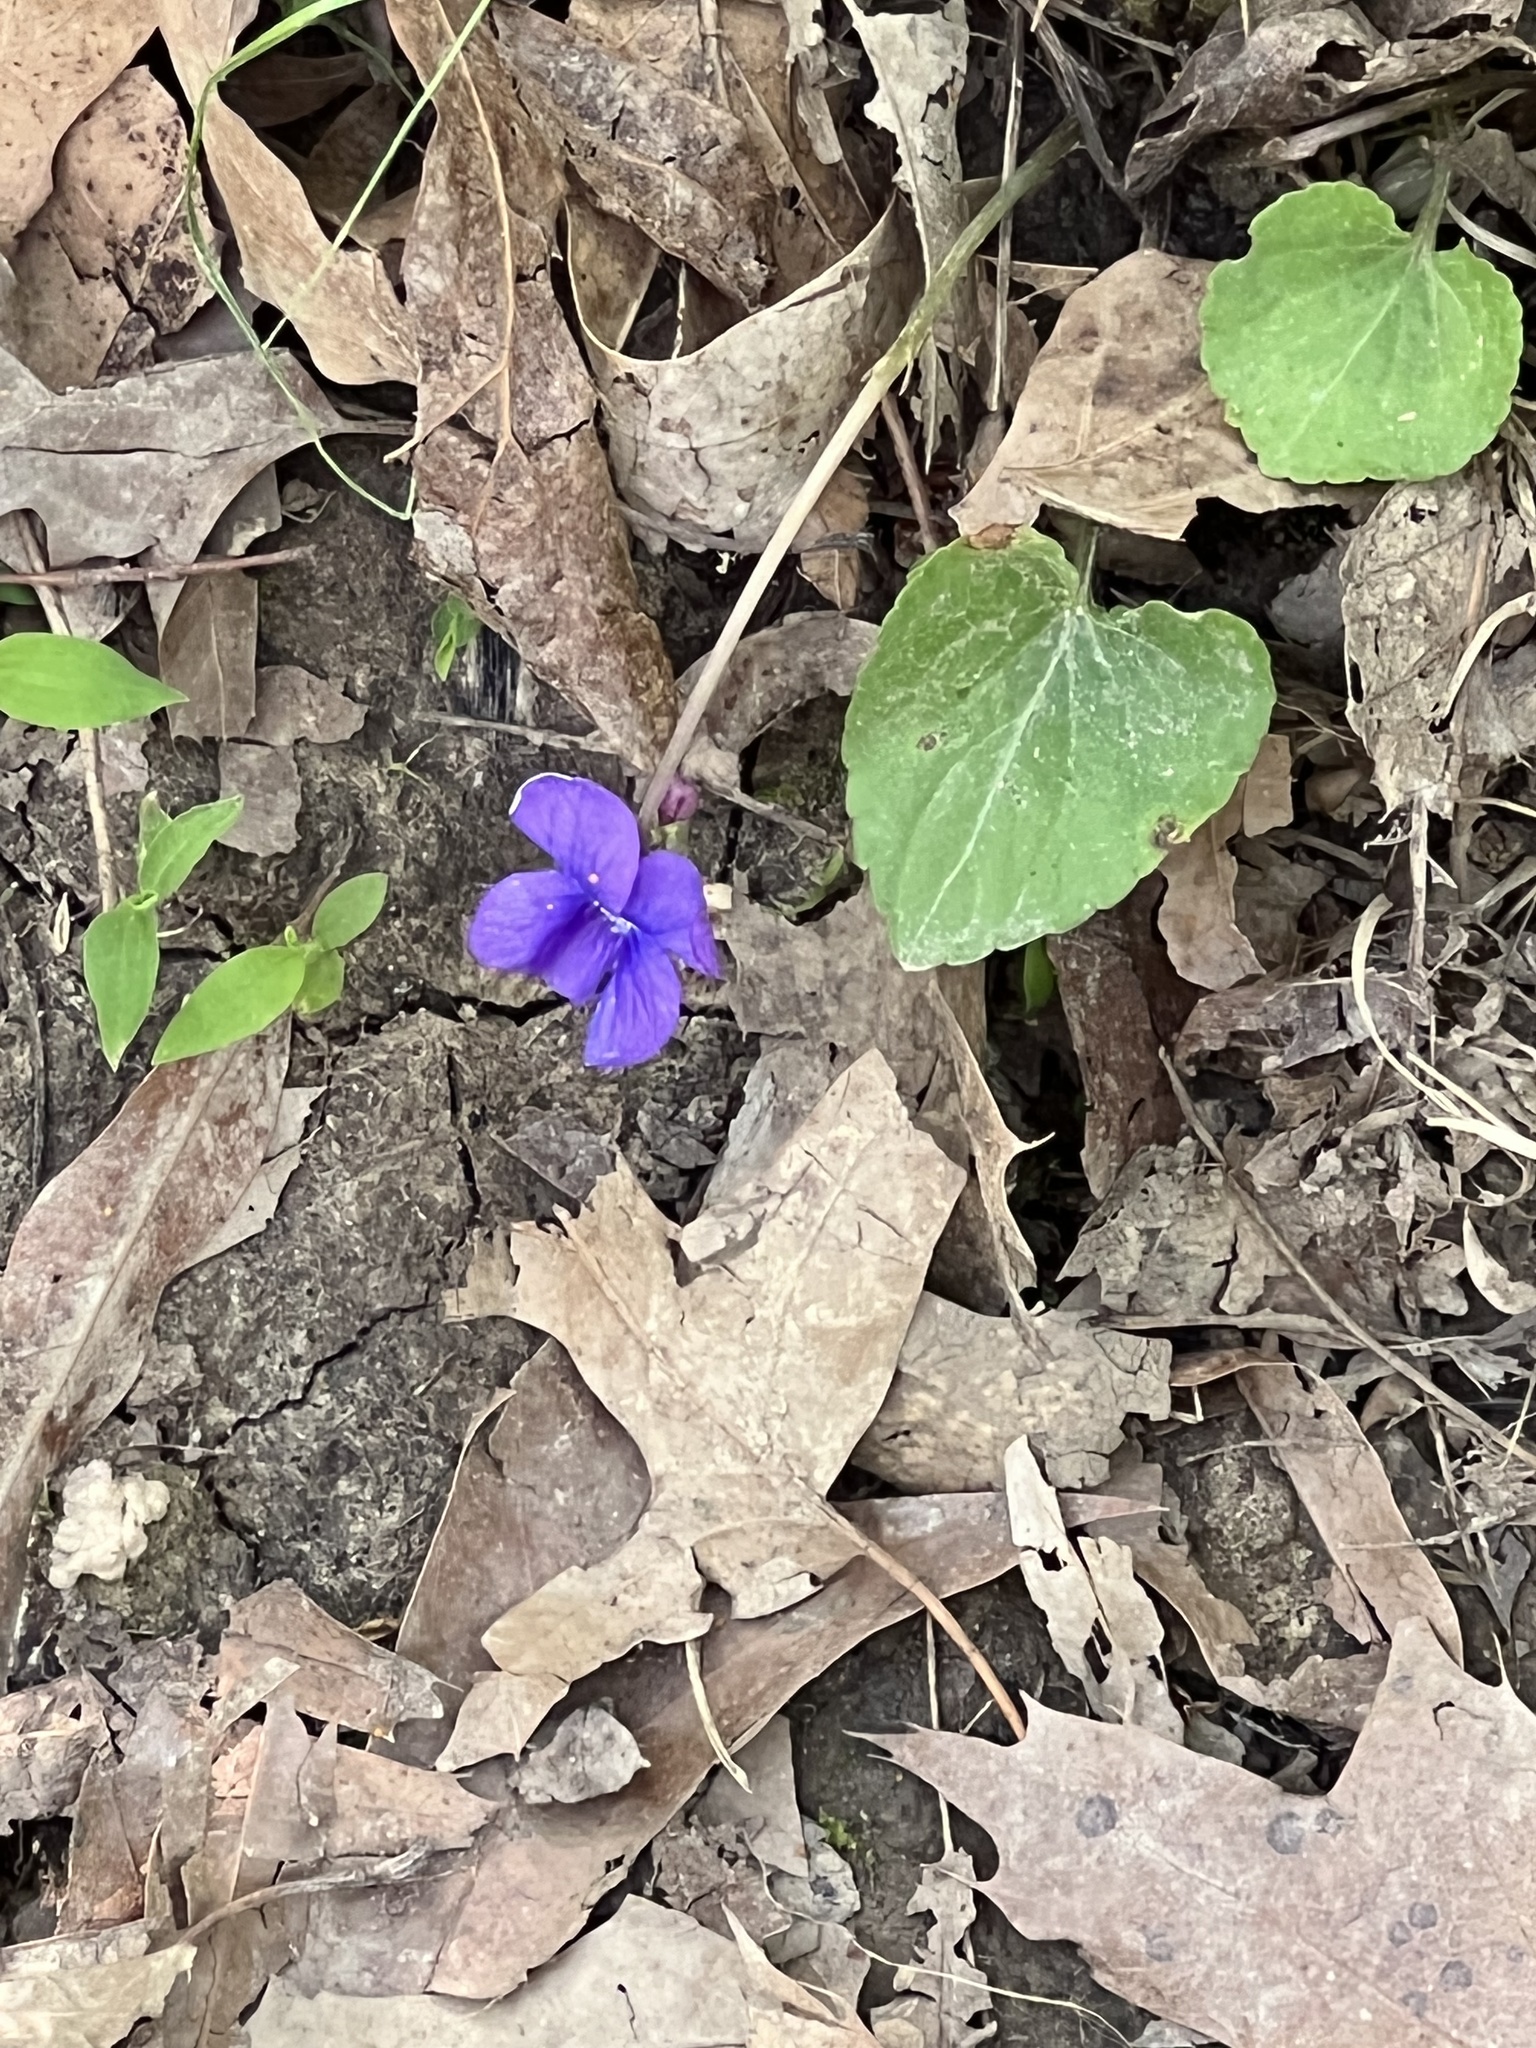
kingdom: Plantae
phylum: Tracheophyta
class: Magnoliopsida
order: Malpighiales
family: Violaceae
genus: Viola
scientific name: Viola sororia
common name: Dooryard violet
